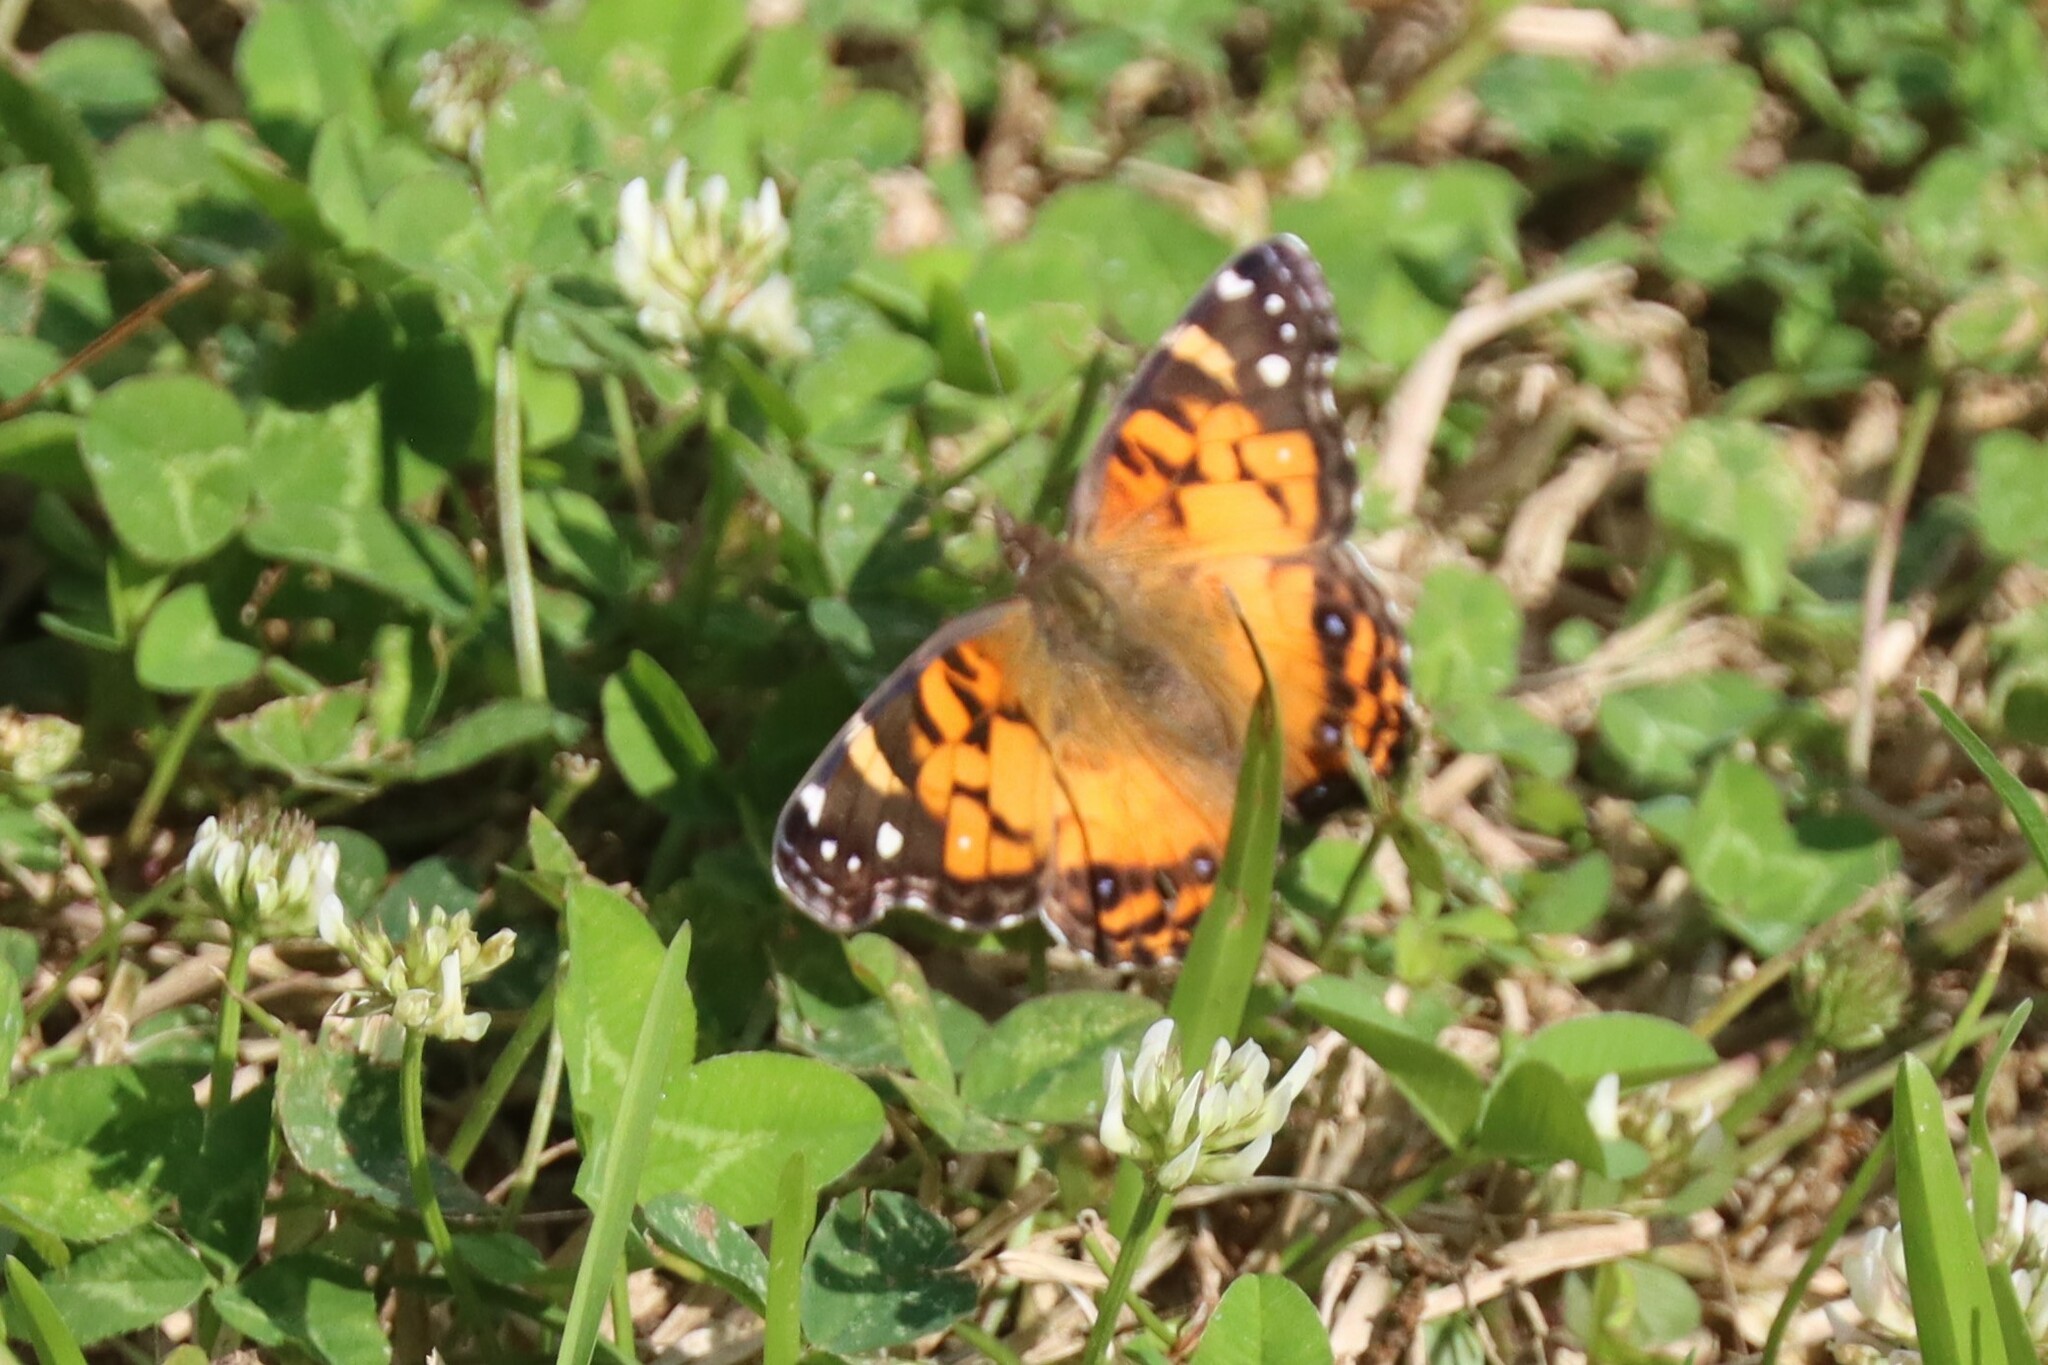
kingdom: Animalia
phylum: Arthropoda
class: Insecta
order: Lepidoptera
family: Nymphalidae
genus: Vanessa
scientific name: Vanessa virginiensis
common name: American lady
